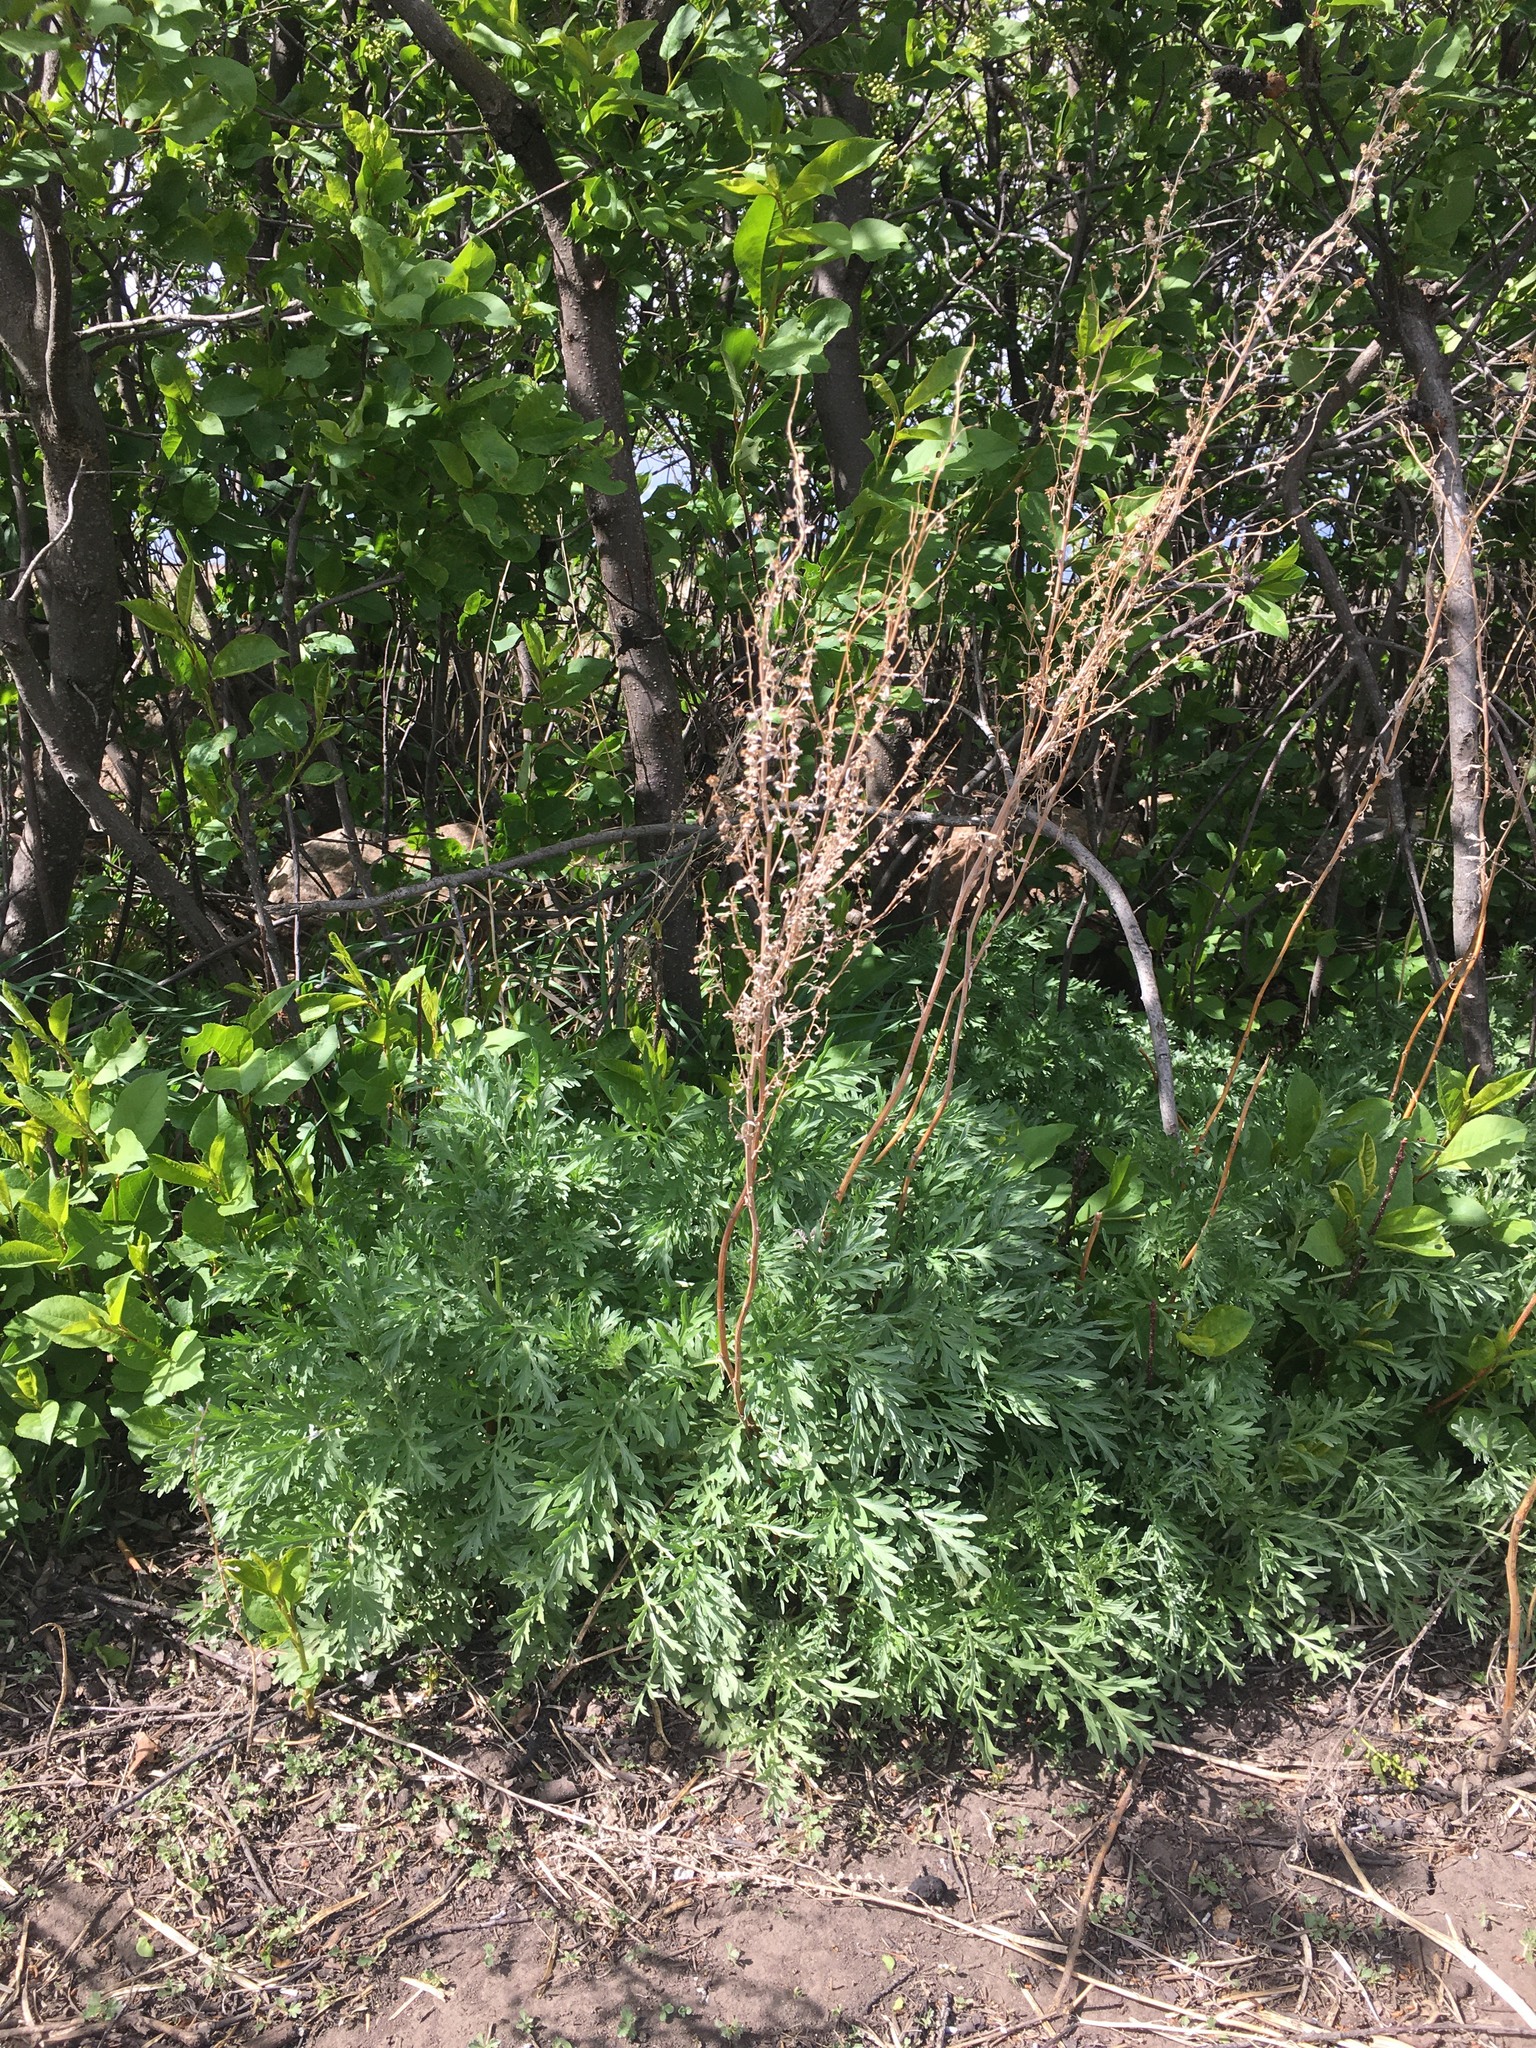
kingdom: Plantae
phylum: Tracheophyta
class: Magnoliopsida
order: Asterales
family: Asteraceae
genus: Artemisia
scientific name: Artemisia absinthium
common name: Wormwood
